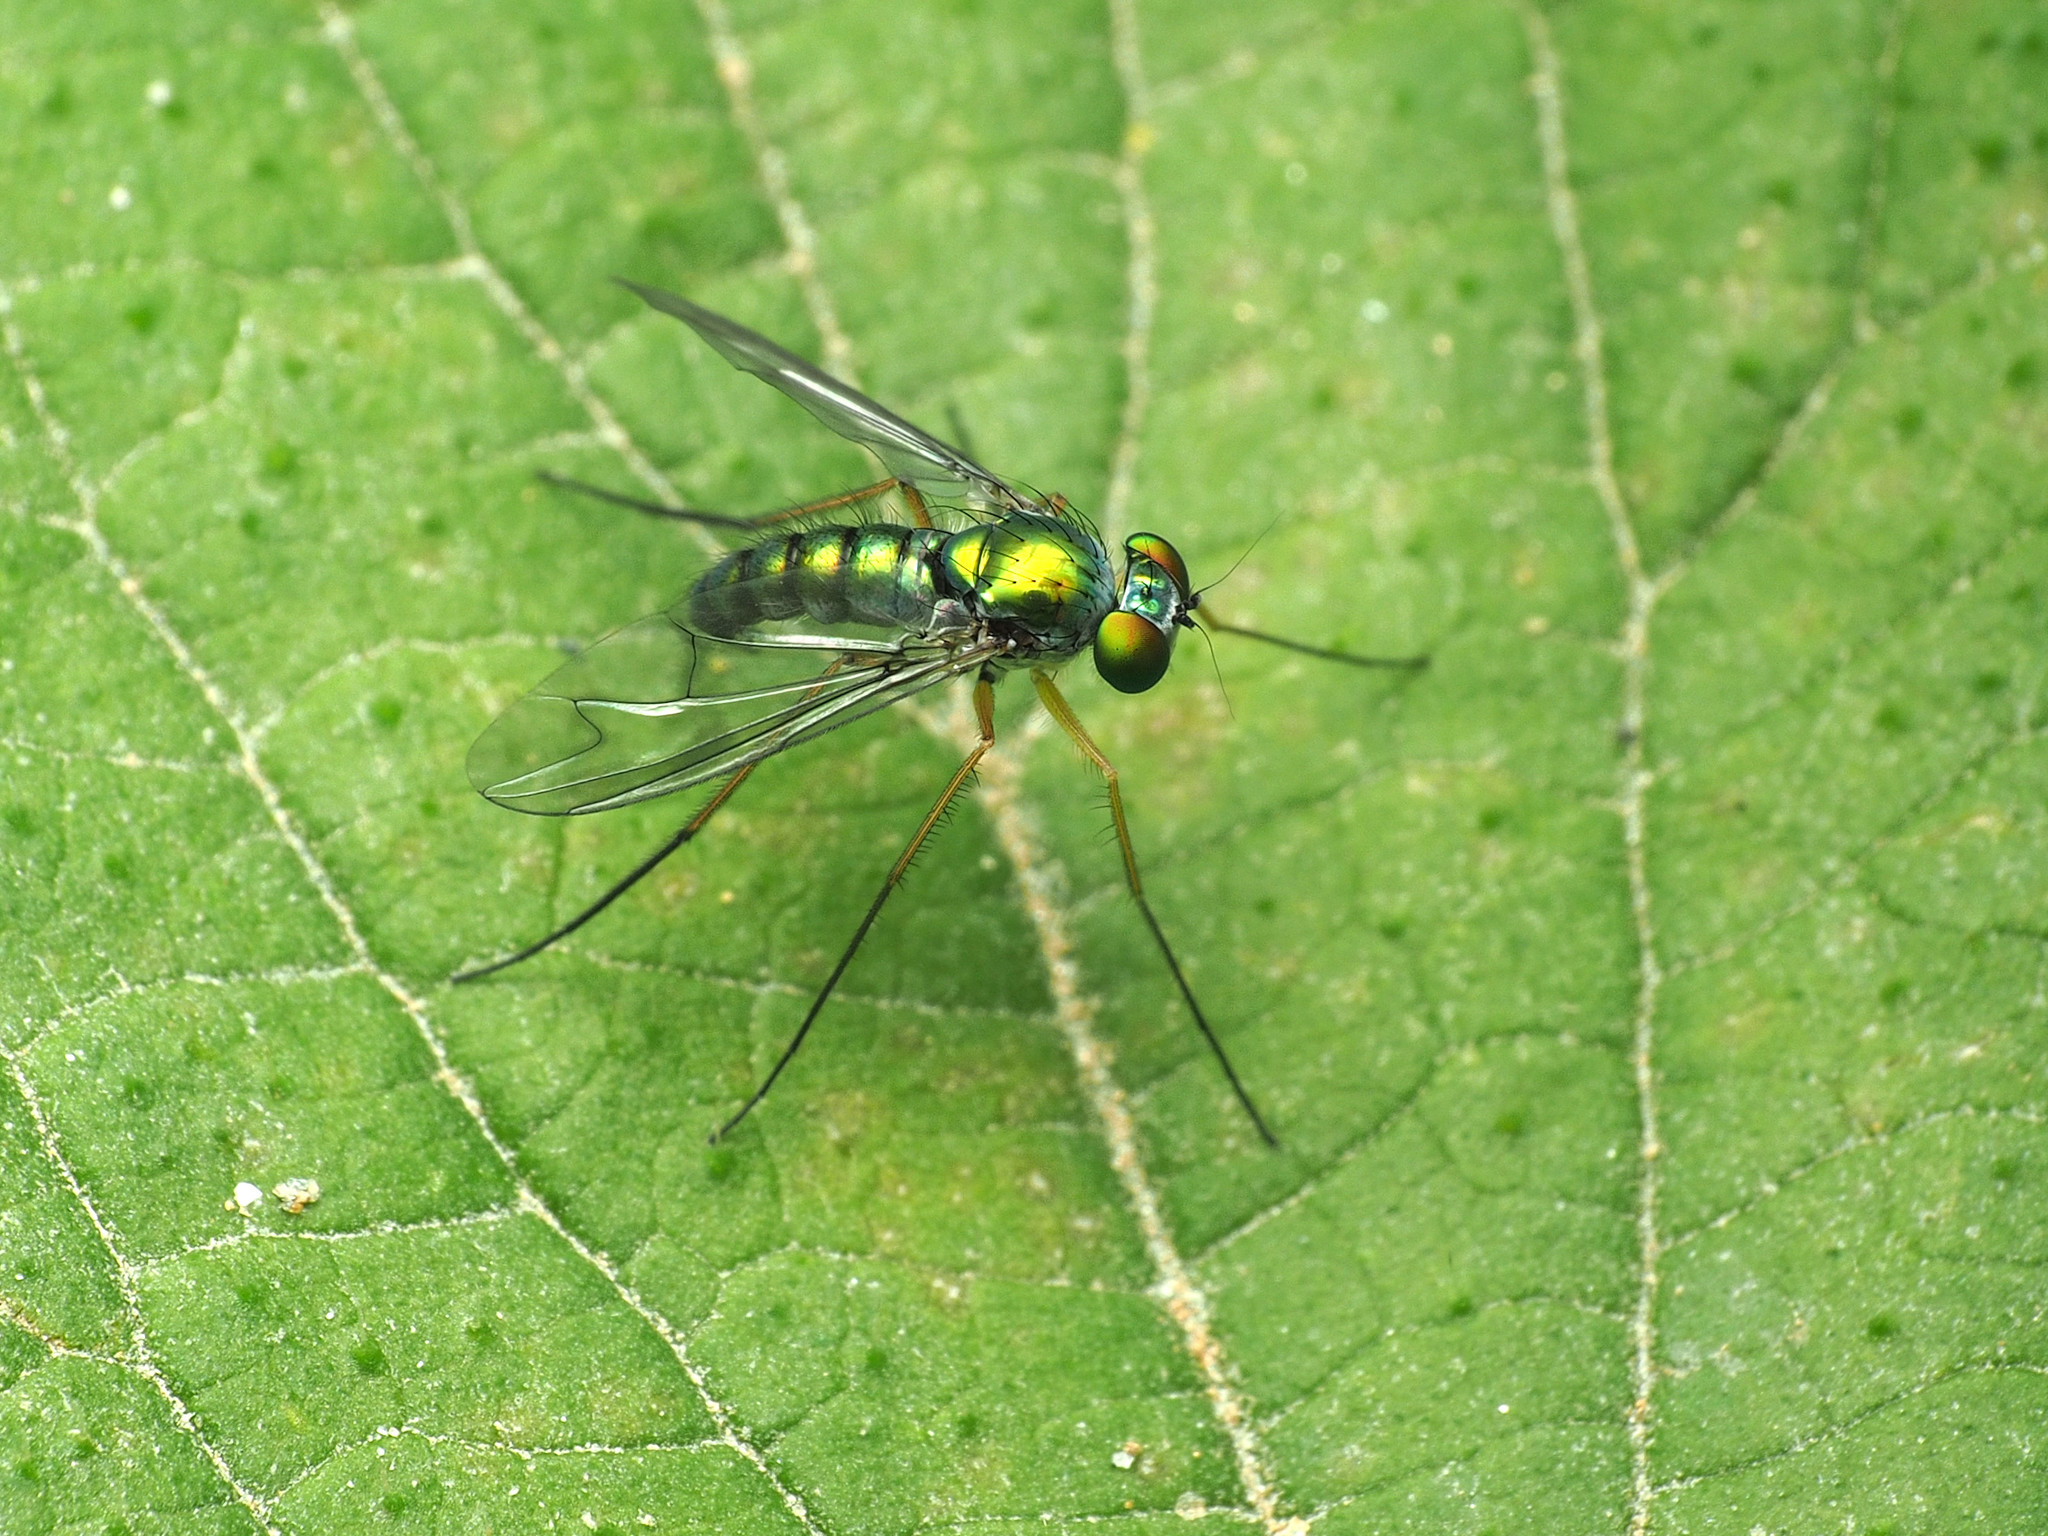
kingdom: Animalia
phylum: Arthropoda
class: Insecta
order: Diptera
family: Dolichopodidae
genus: Condylostylus
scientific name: Condylostylus sipho
